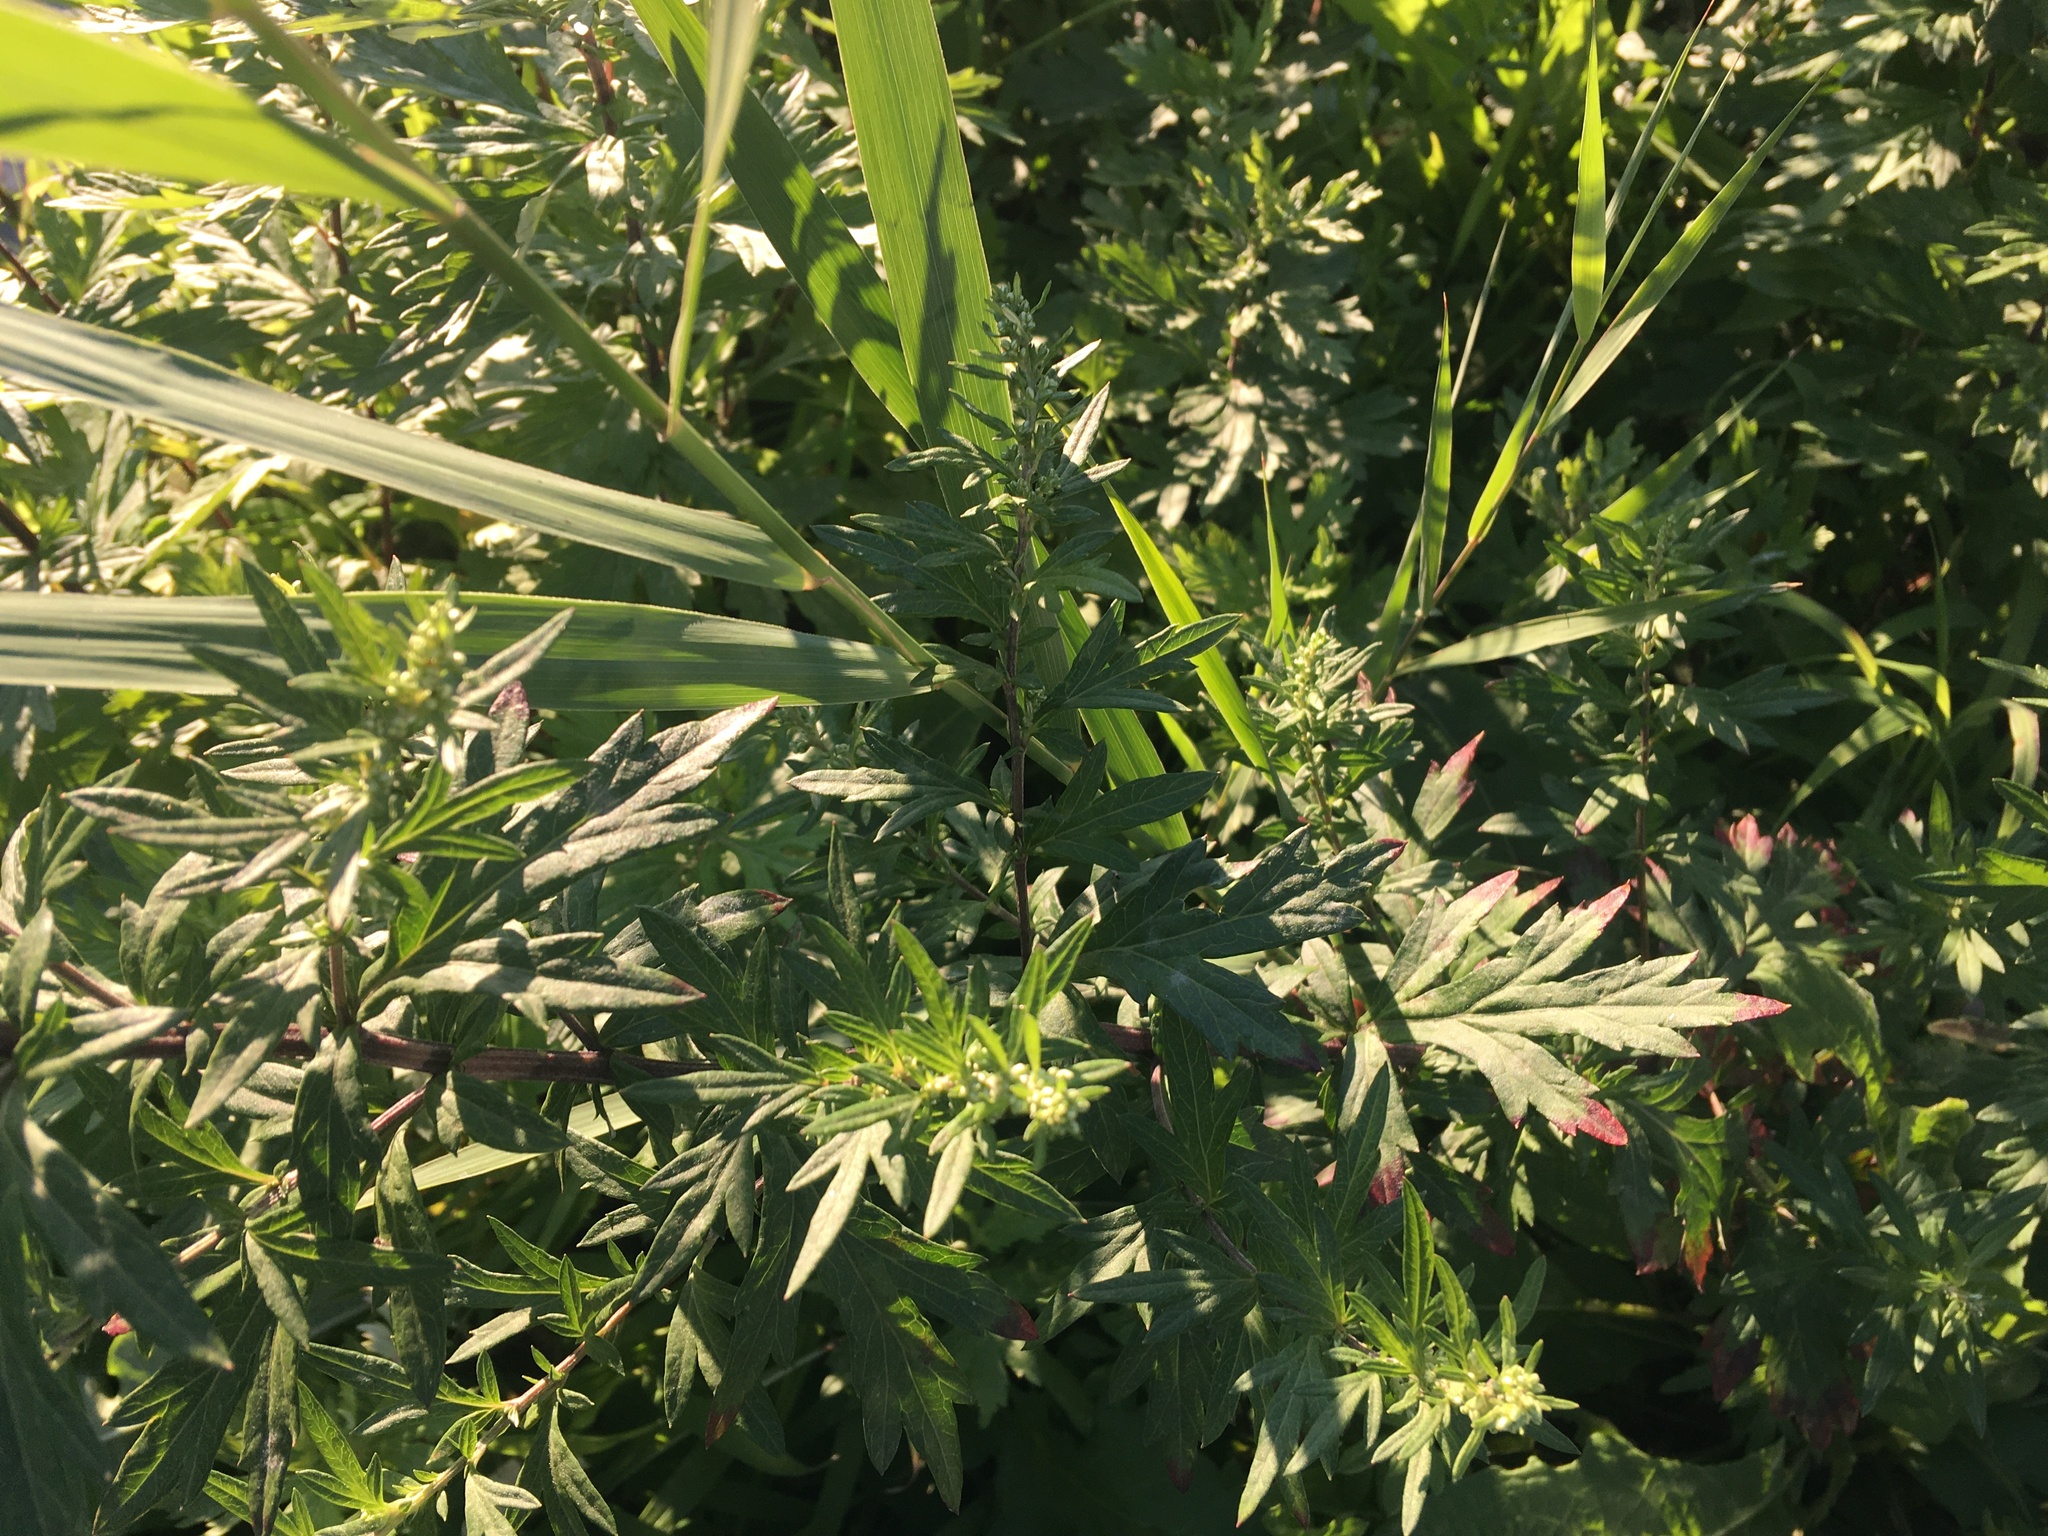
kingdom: Plantae
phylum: Tracheophyta
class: Magnoliopsida
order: Asterales
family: Asteraceae
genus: Artemisia
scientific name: Artemisia vulgaris
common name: Mugwort
